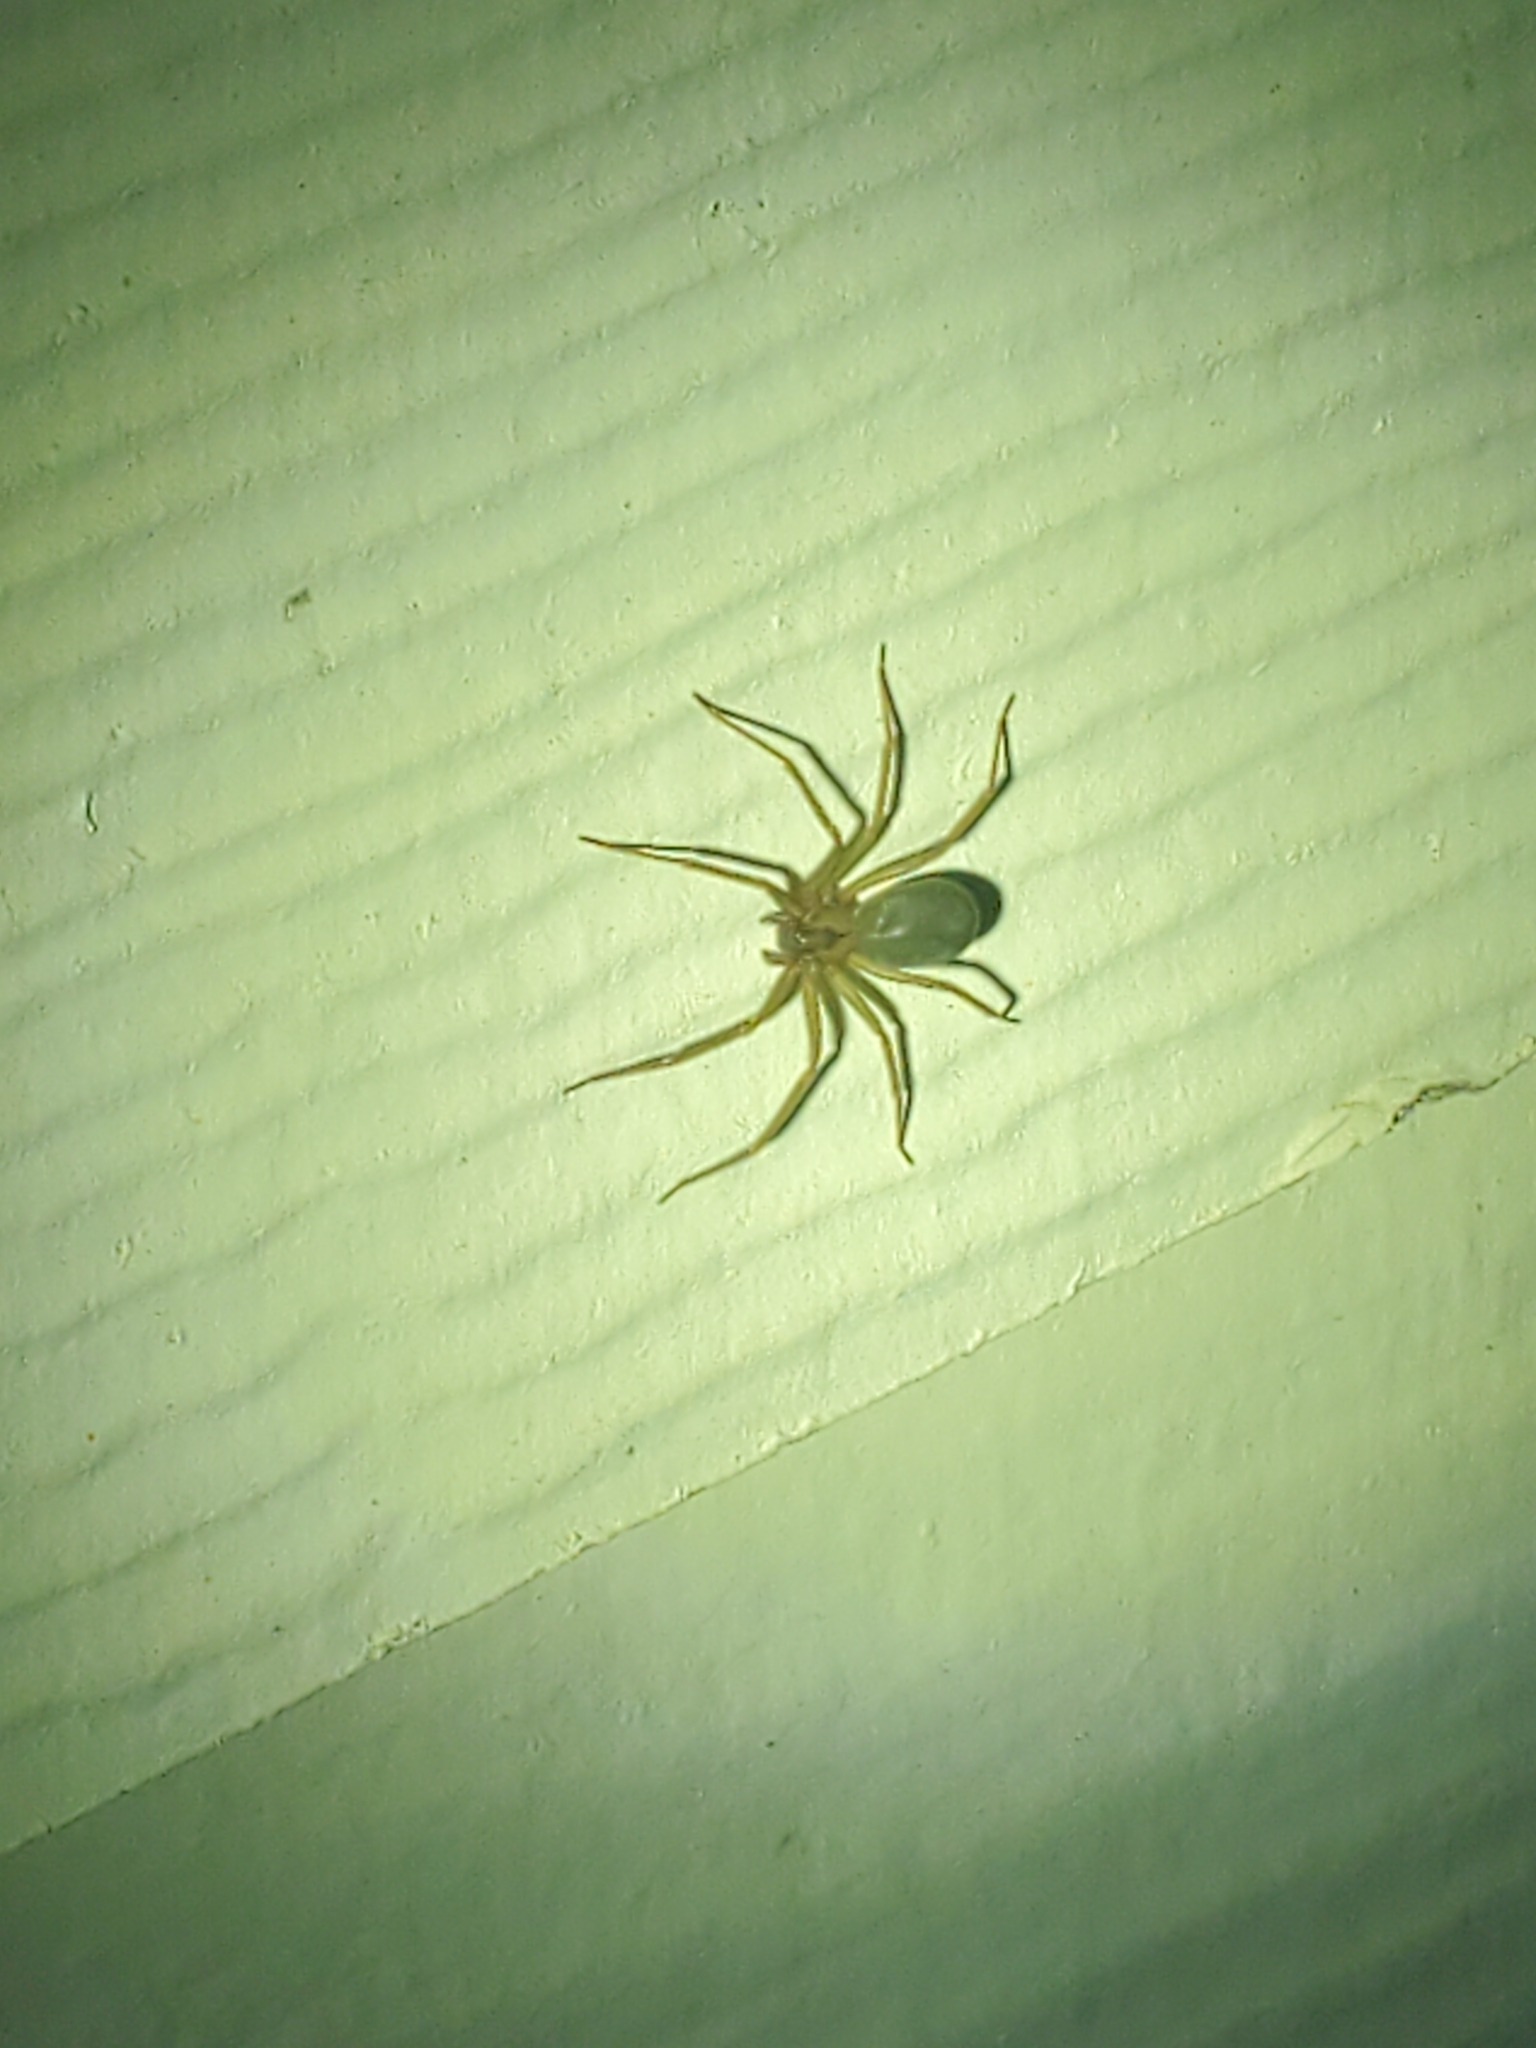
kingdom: Animalia
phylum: Arthropoda
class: Arachnida
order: Araneae
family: Sicariidae
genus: Loxosceles
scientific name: Loxosceles reclusa
